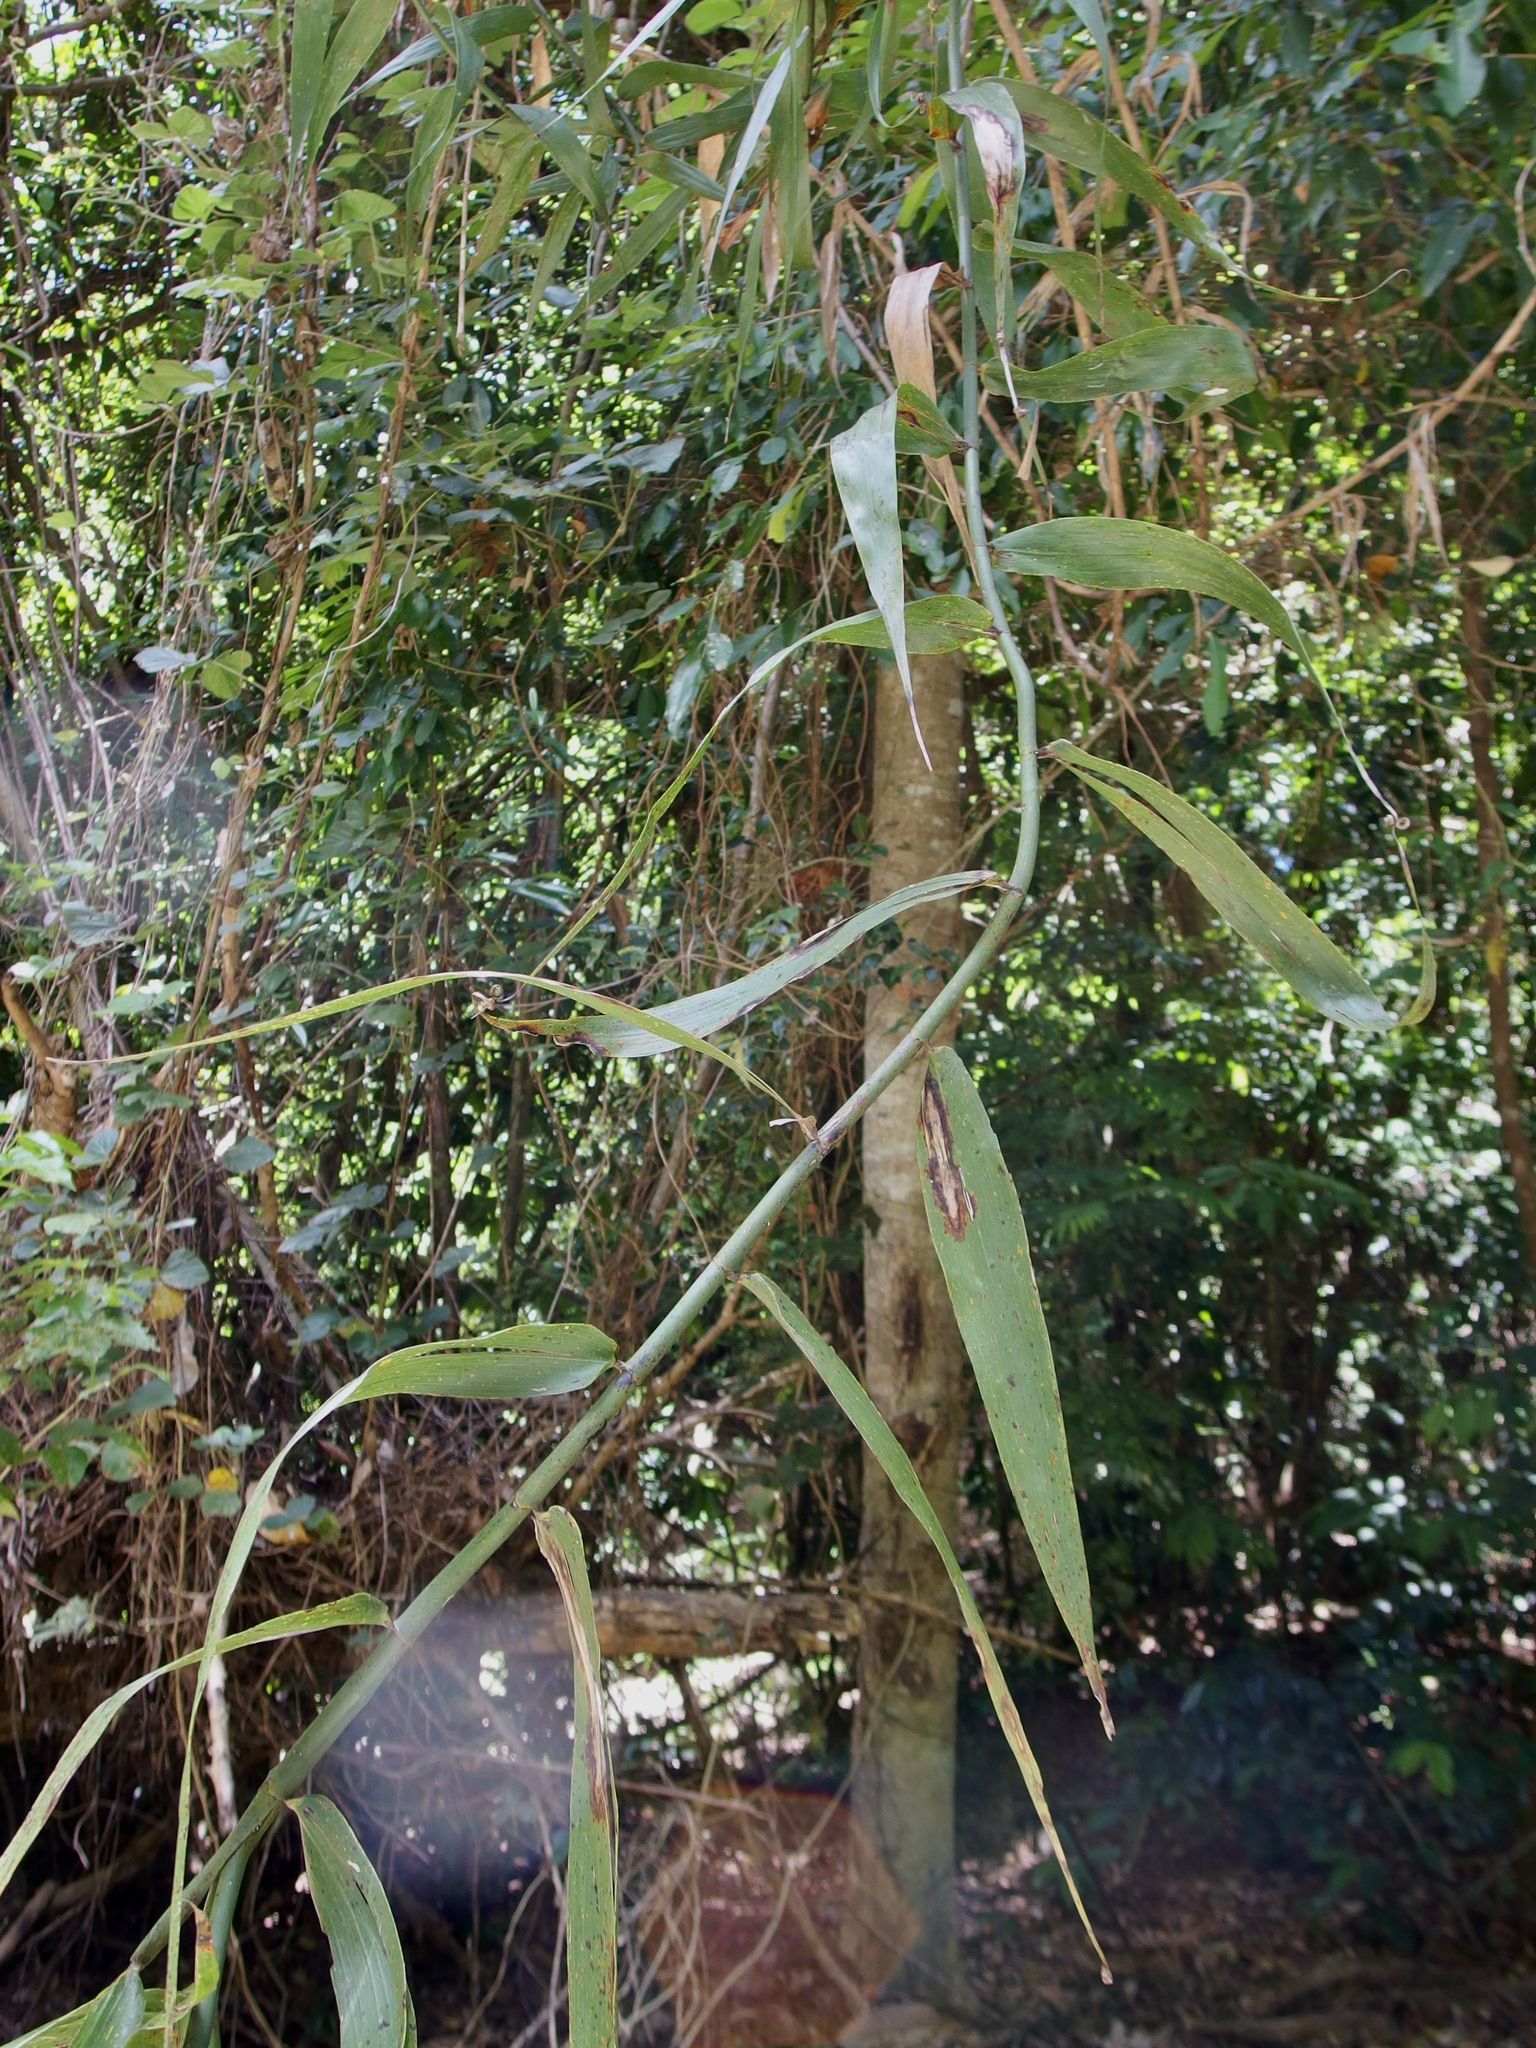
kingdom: Plantae
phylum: Tracheophyta
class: Liliopsida
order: Poales
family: Flagellariaceae
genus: Flagellaria
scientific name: Flagellaria indica
